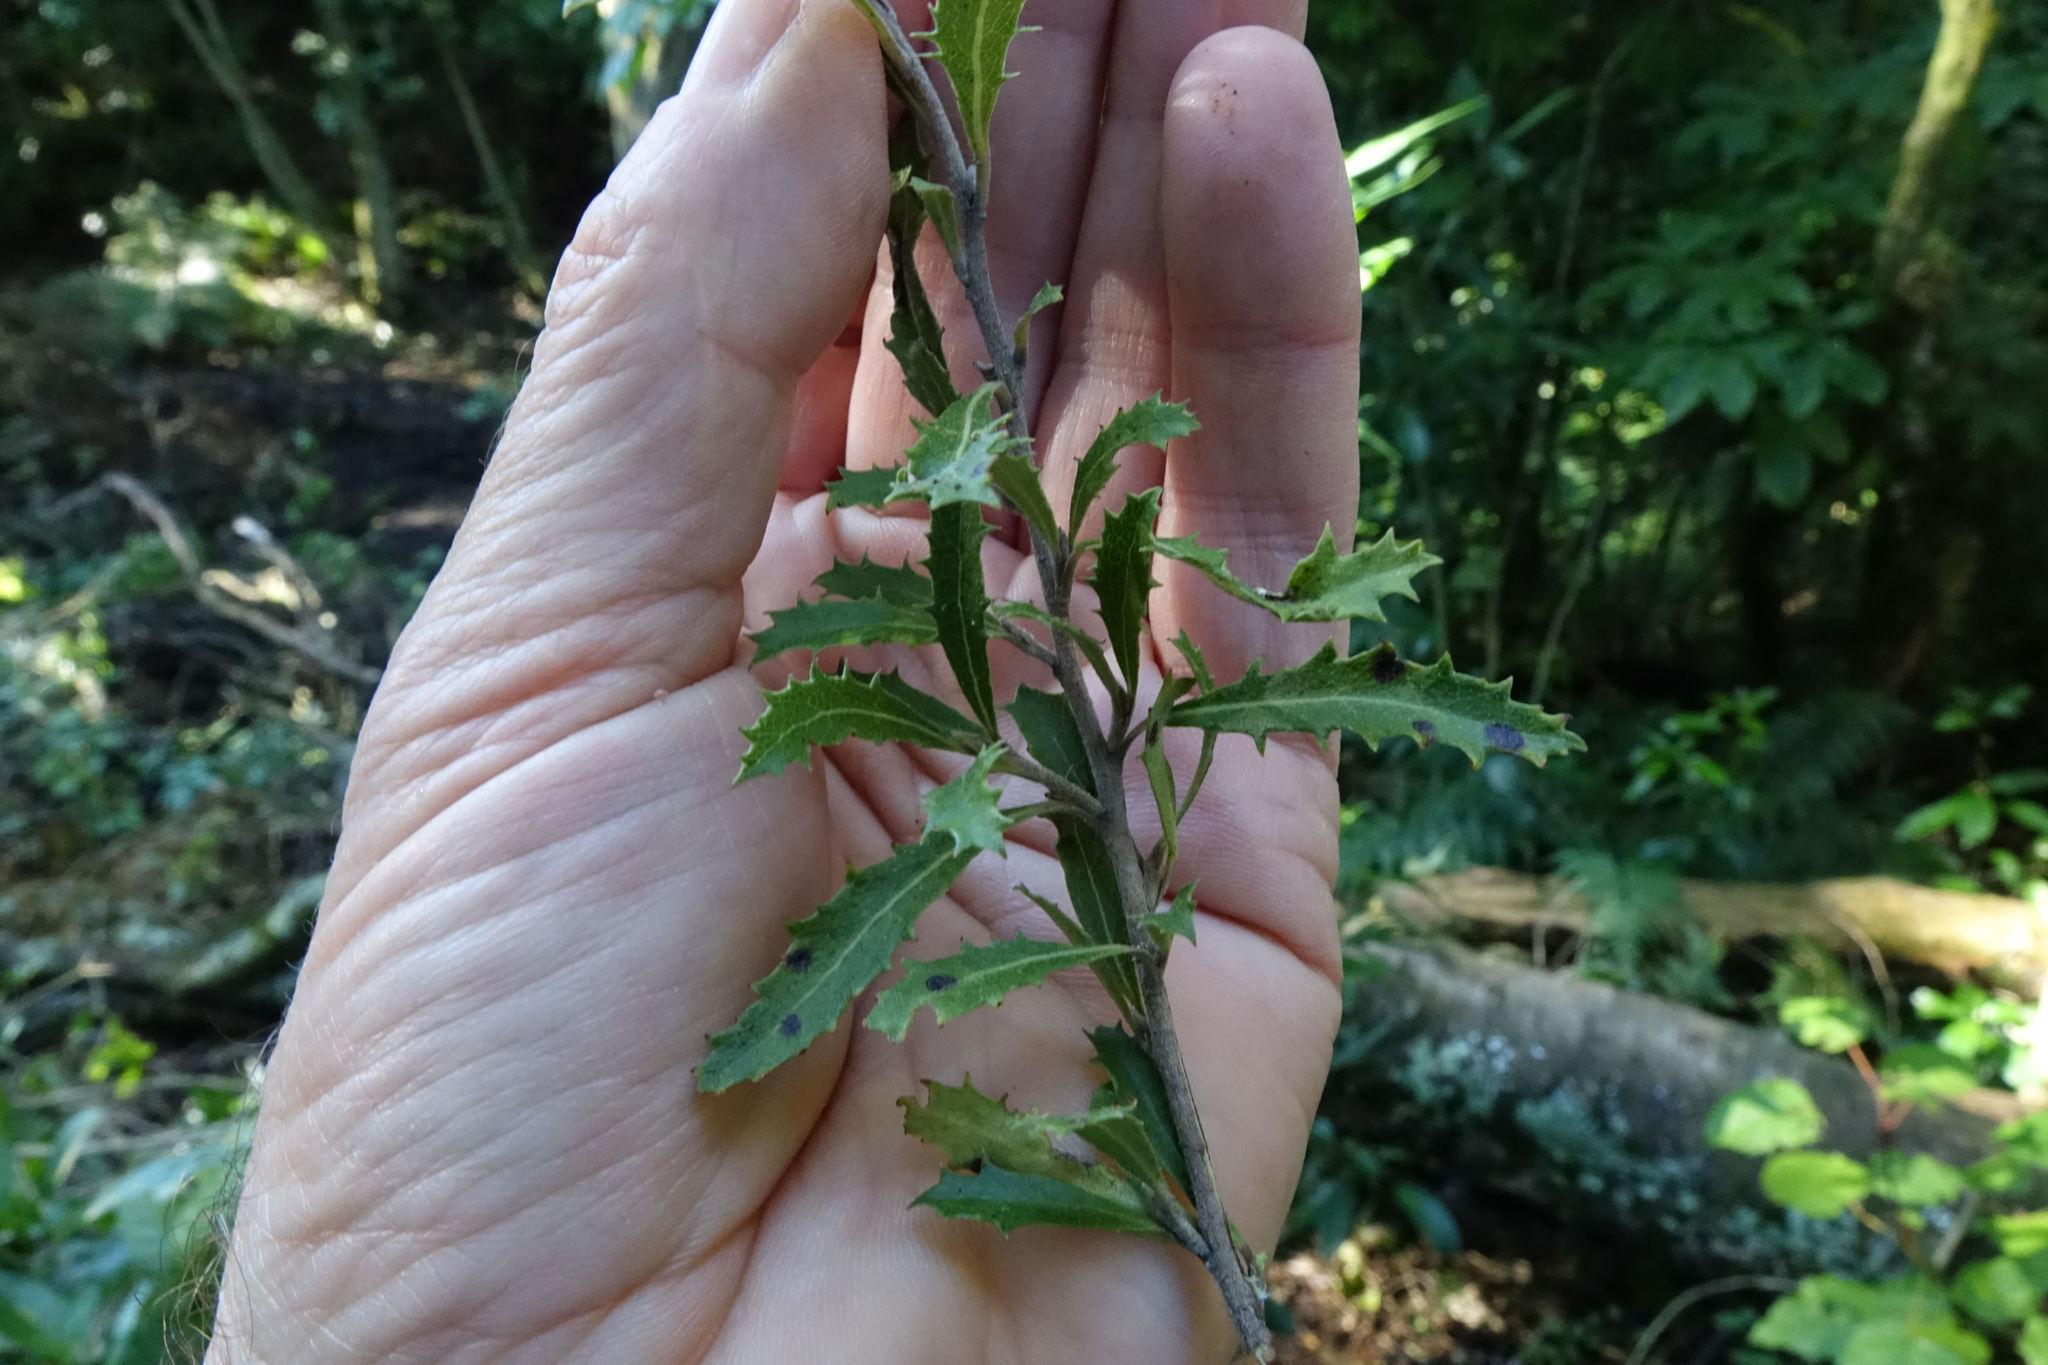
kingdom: Plantae
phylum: Tracheophyta
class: Magnoliopsida
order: Malvales
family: Malvaceae
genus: Hoheria
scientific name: Hoheria angustifolia
